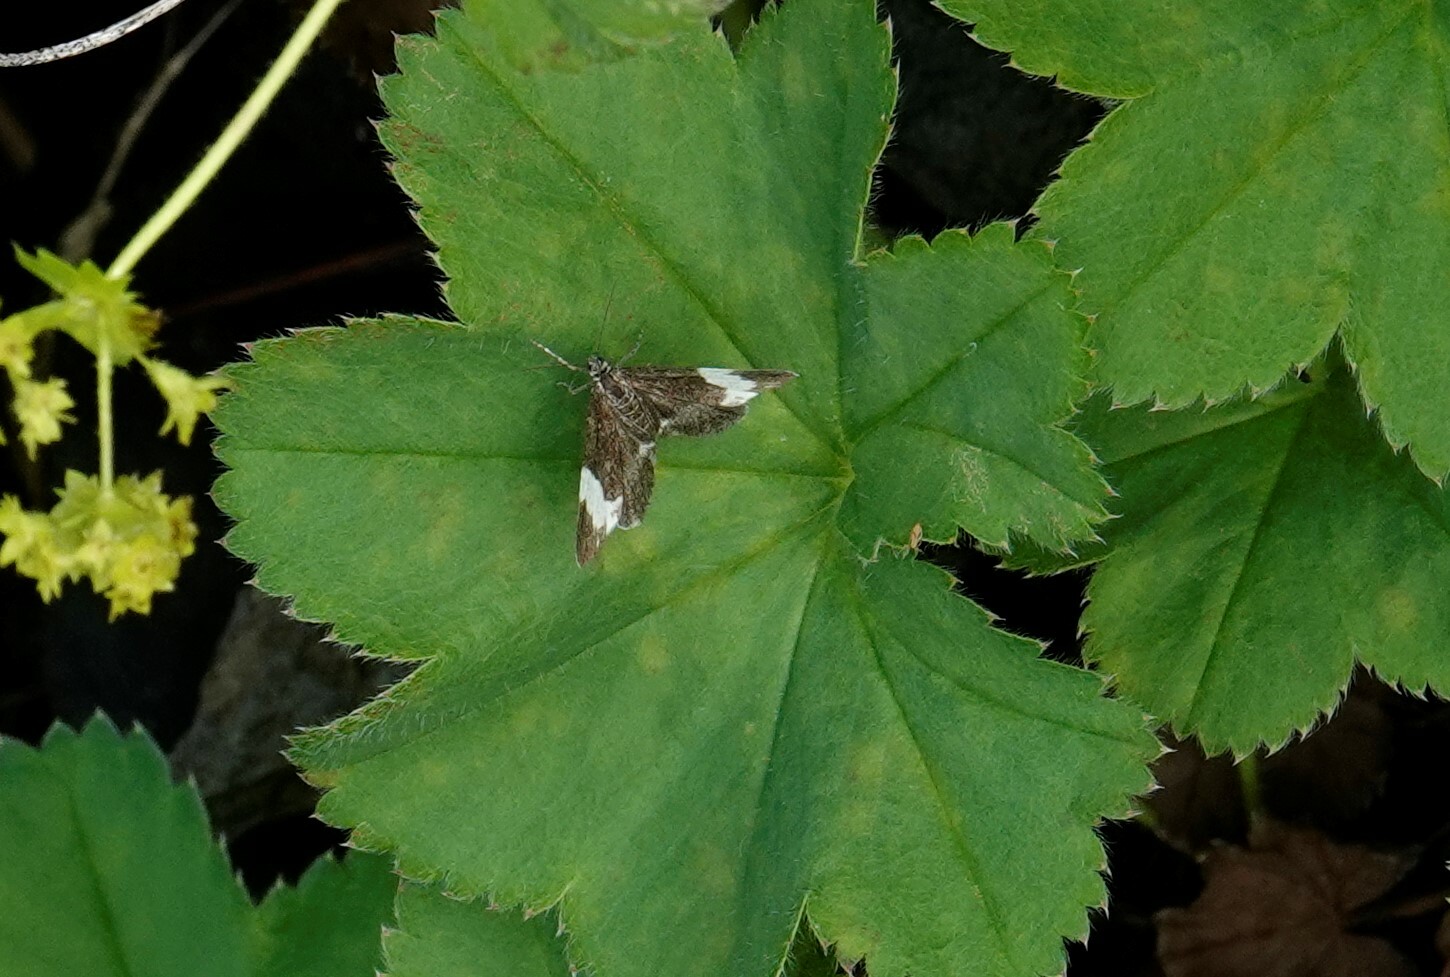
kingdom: Animalia
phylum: Arthropoda
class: Insecta
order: Lepidoptera
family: Geometridae
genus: Trichodezia
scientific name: Trichodezia albovittata
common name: White striped black
